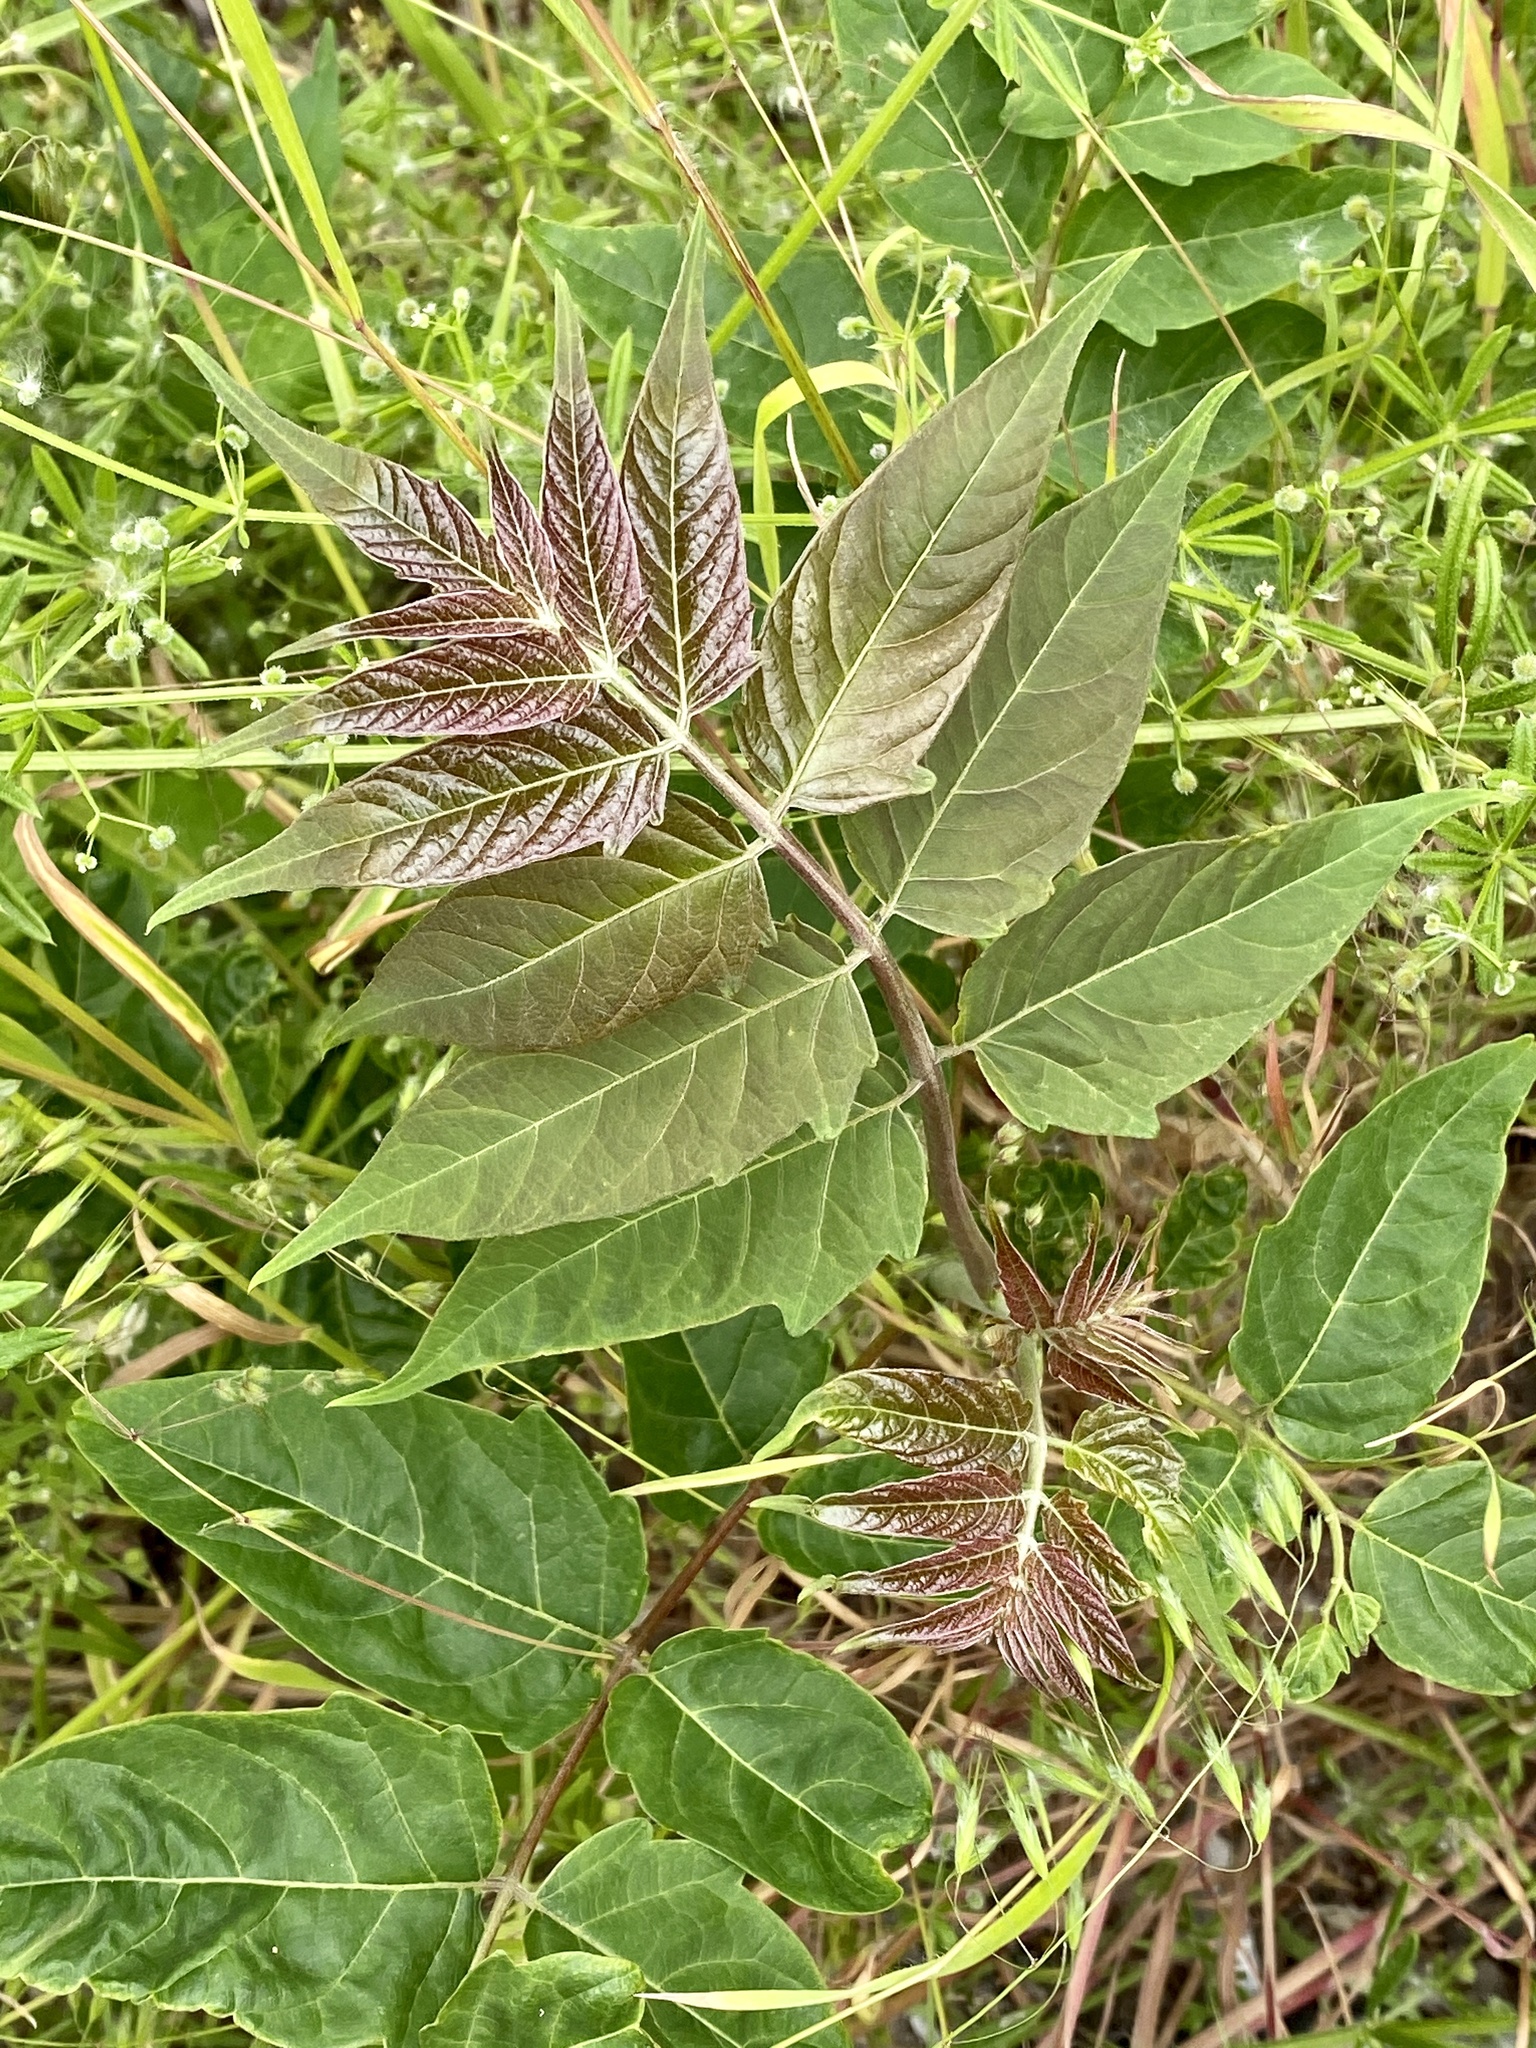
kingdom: Plantae
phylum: Tracheophyta
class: Magnoliopsida
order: Sapindales
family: Simaroubaceae
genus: Ailanthus
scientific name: Ailanthus altissima
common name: Tree-of-heaven
